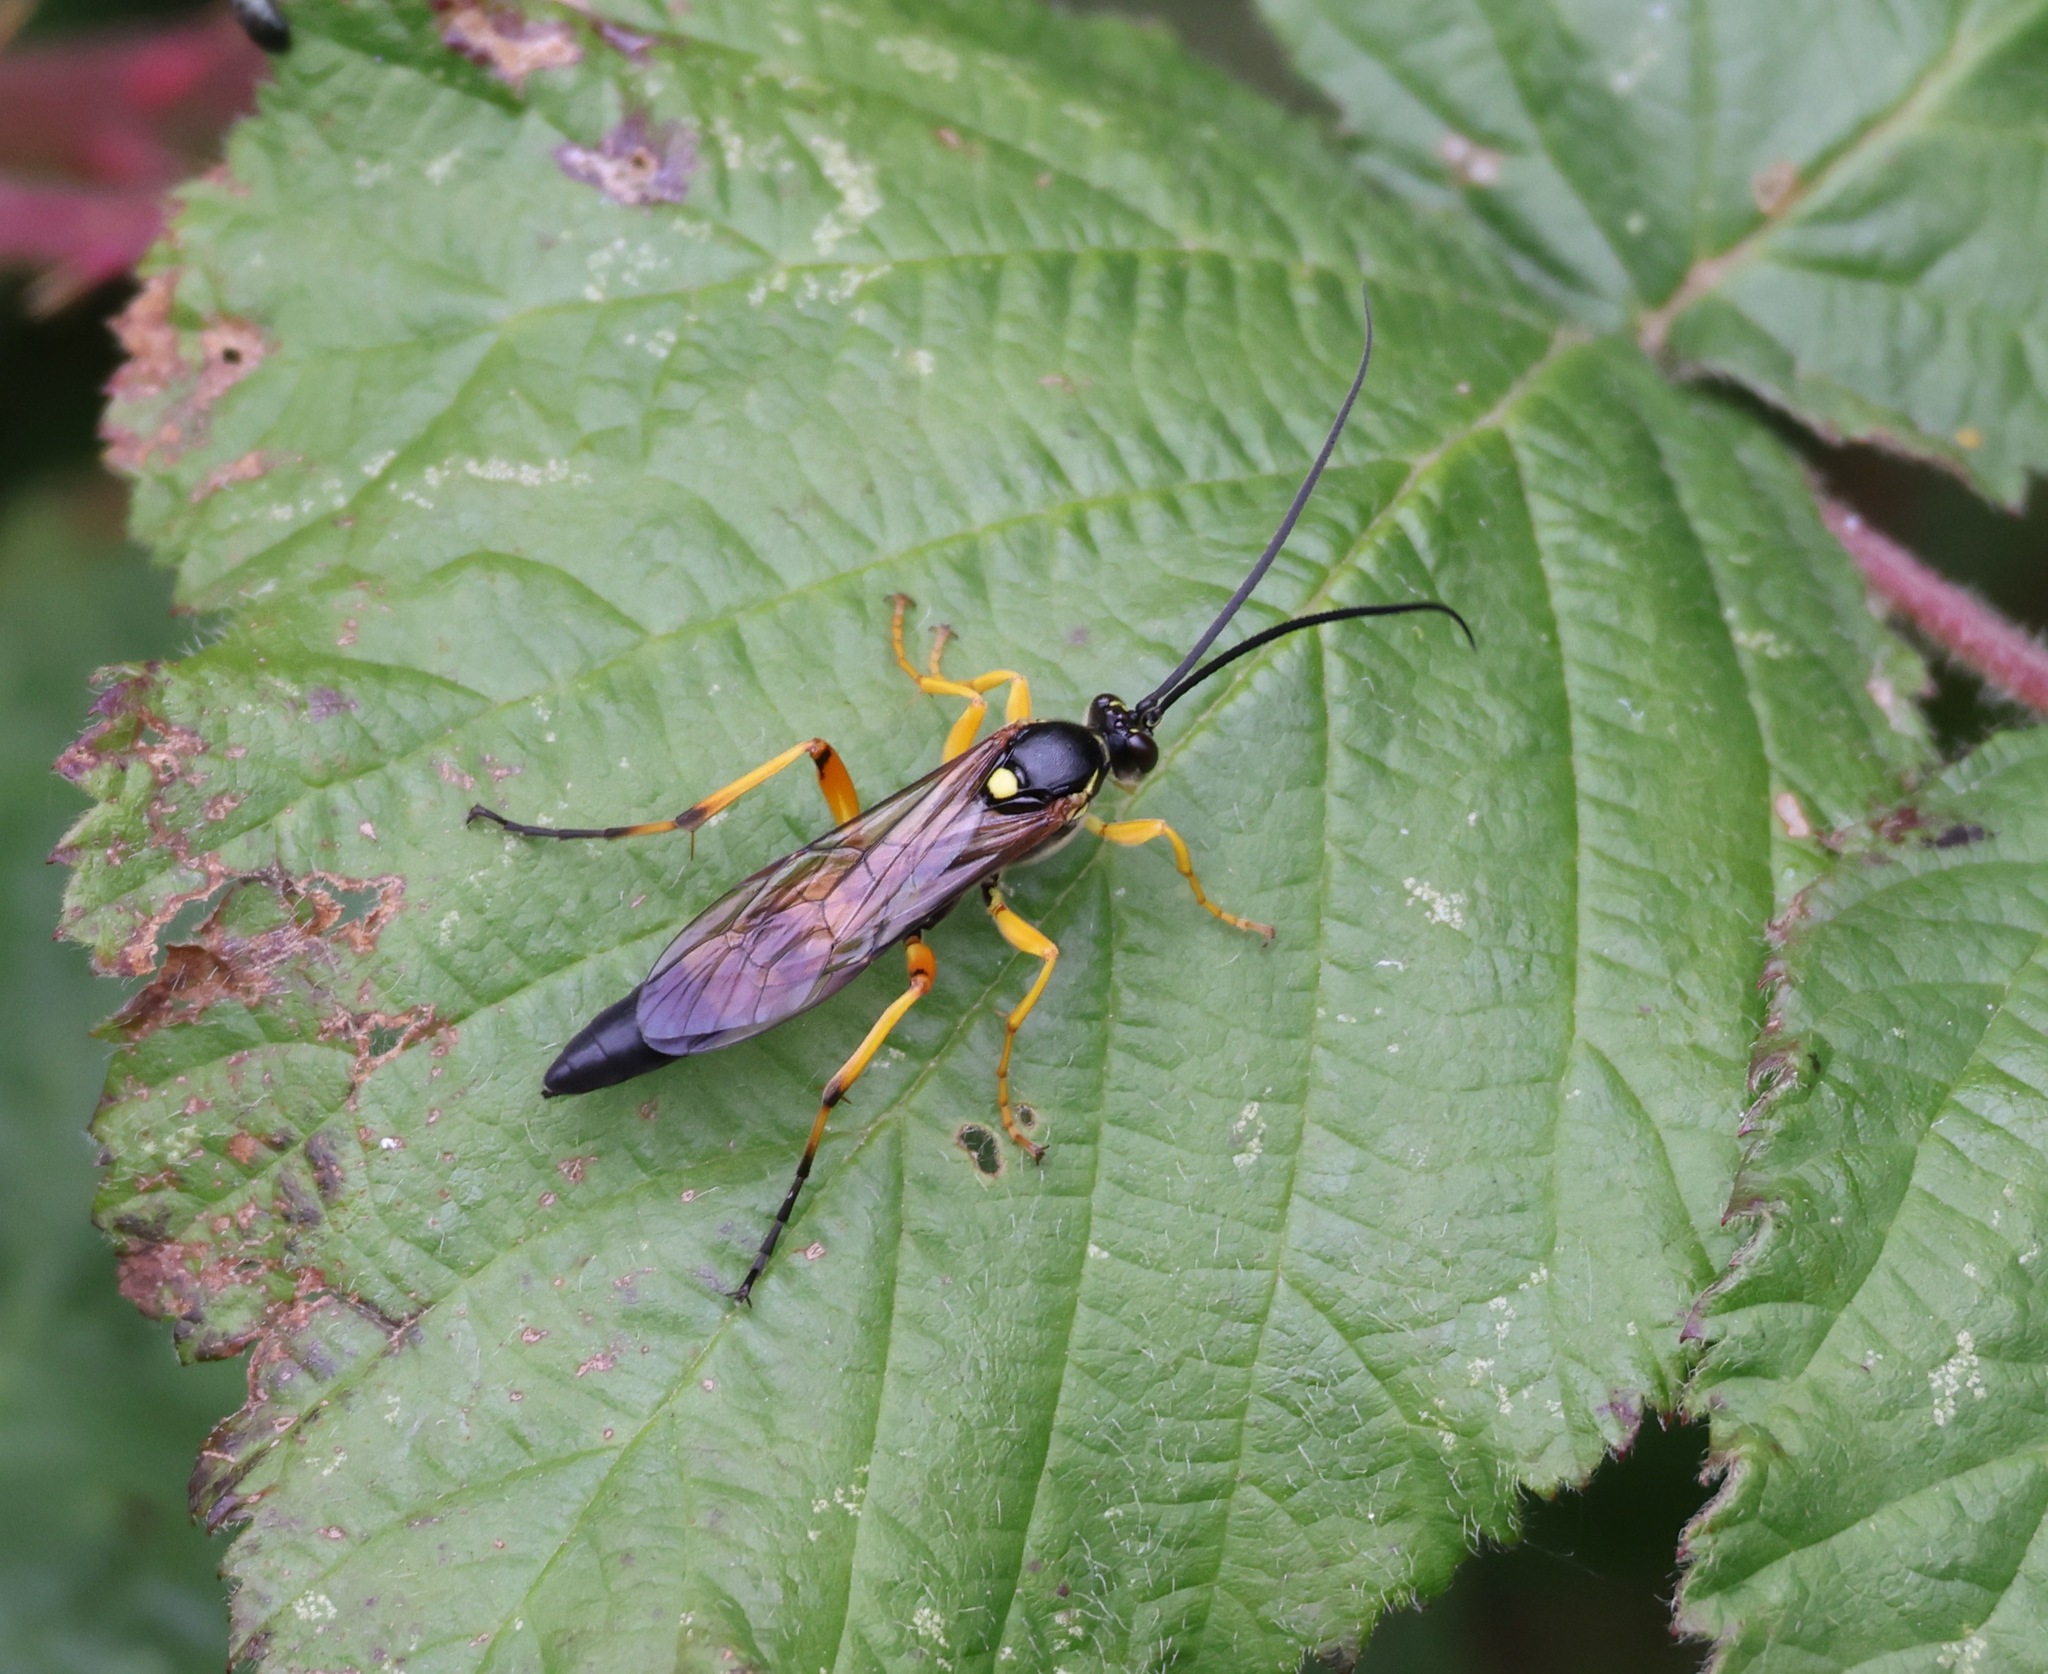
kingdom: Animalia
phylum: Arthropoda
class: Insecta
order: Hymenoptera
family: Ichneumonidae
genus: Diphyus
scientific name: Diphyus quadripunctorius
